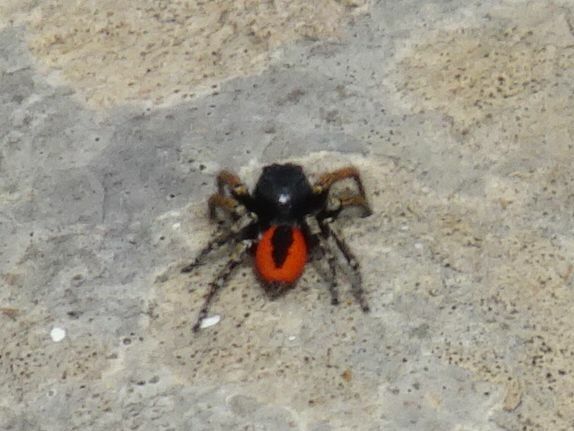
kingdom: Animalia
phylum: Arthropoda
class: Arachnida
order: Araneae
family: Salticidae
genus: Philaeus
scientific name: Philaeus chrysops
